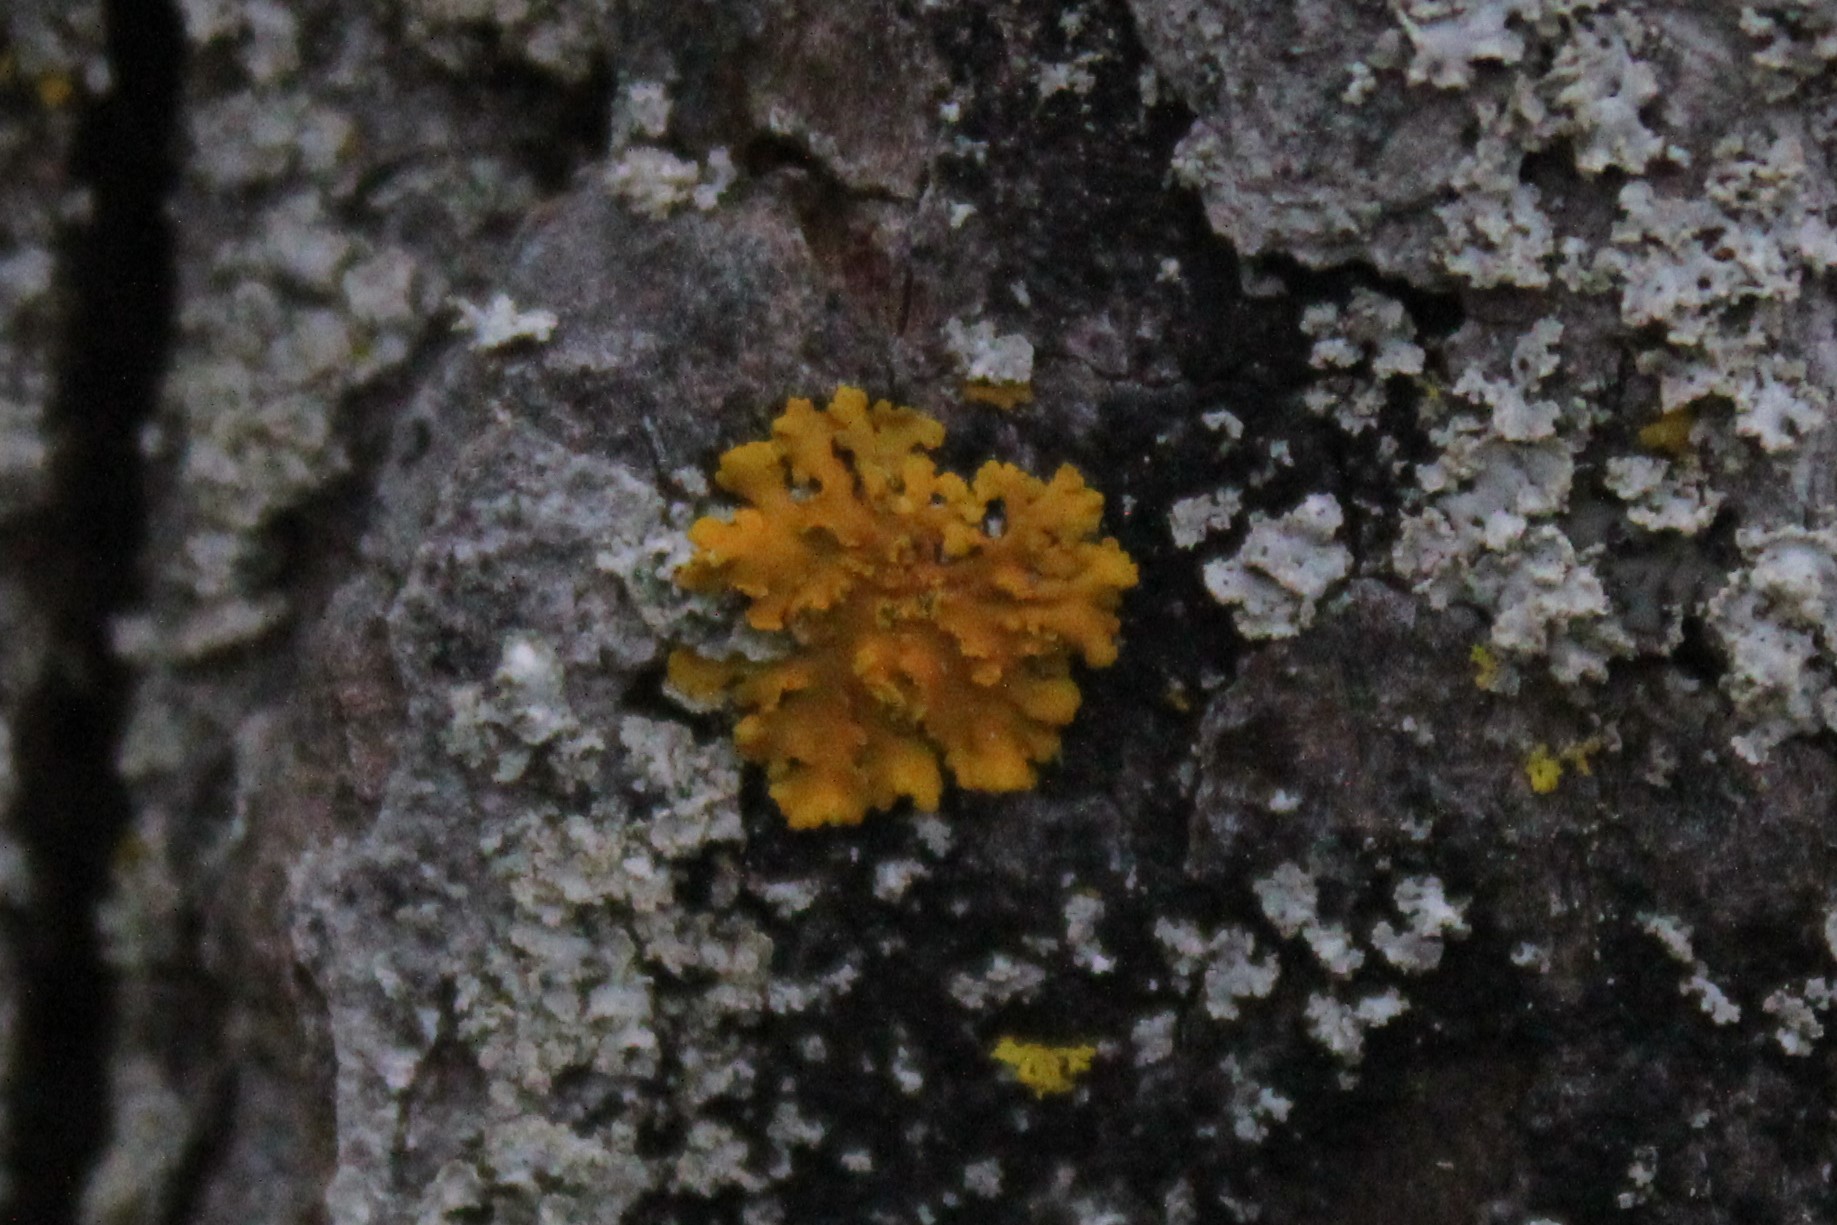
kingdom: Fungi
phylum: Ascomycota
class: Lecanoromycetes
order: Teloschistales
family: Teloschistaceae
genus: Oxneria
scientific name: Oxneria fallax
